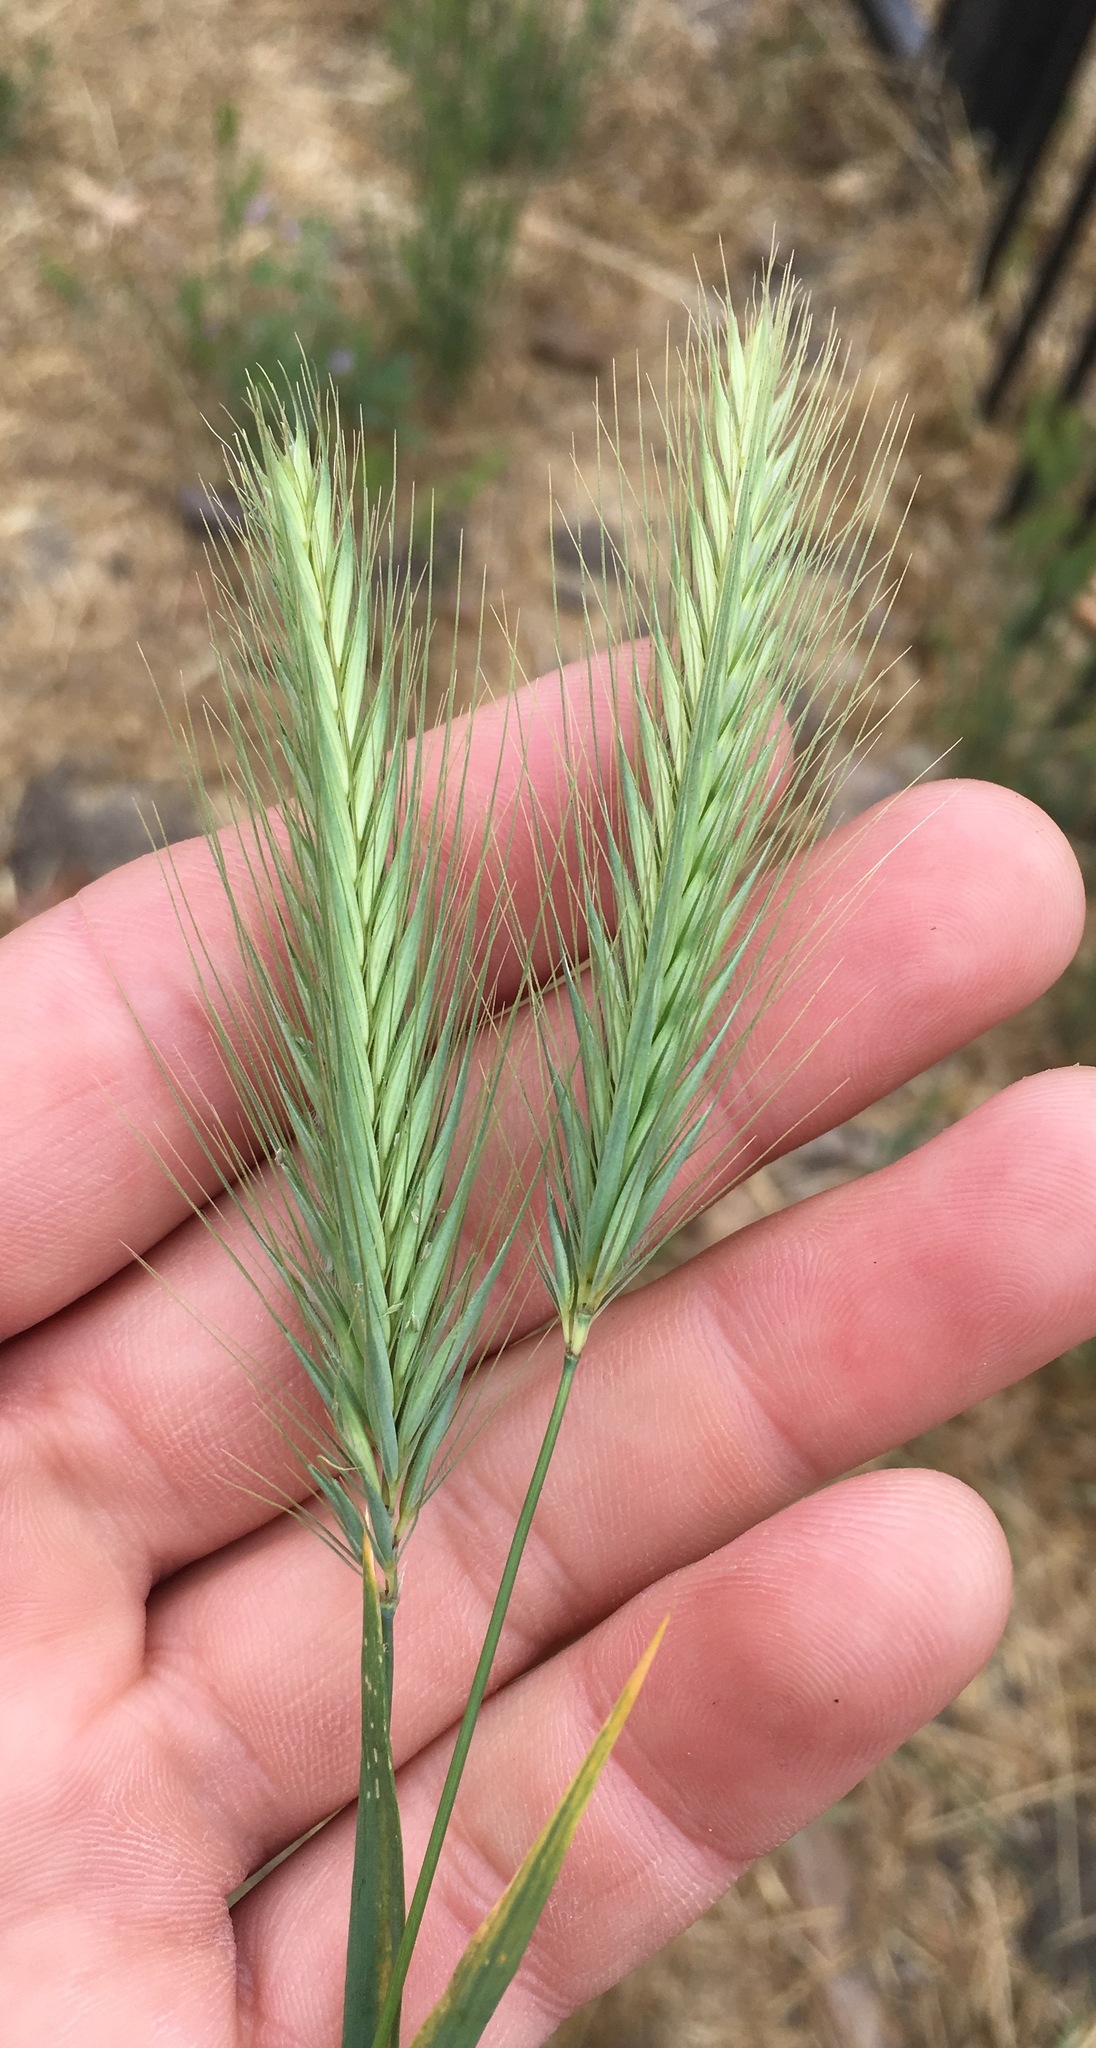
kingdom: Plantae
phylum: Tracheophyta
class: Liliopsida
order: Poales
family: Poaceae
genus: Hordeum
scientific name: Hordeum murinum
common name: Wall barley
